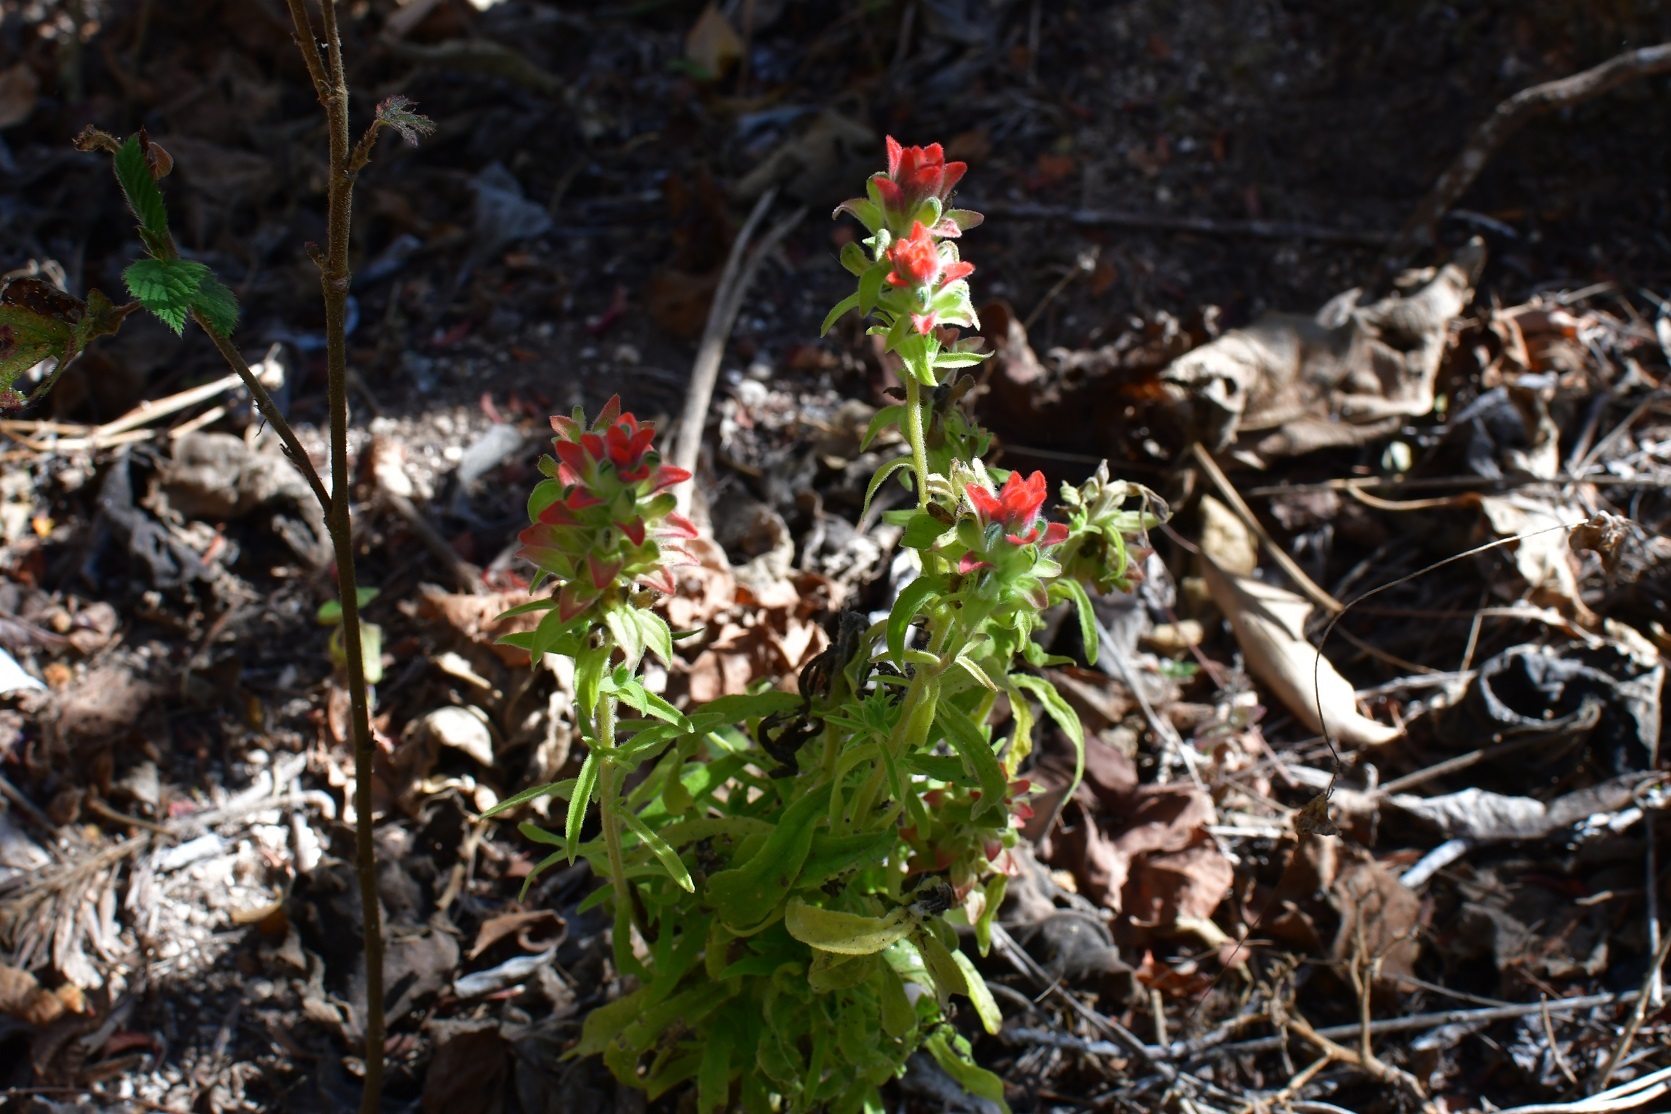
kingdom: Plantae
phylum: Tracheophyta
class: Magnoliopsida
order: Lamiales
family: Orobanchaceae
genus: Castilleja
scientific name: Castilleja arvensis
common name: Indian paintbrush
